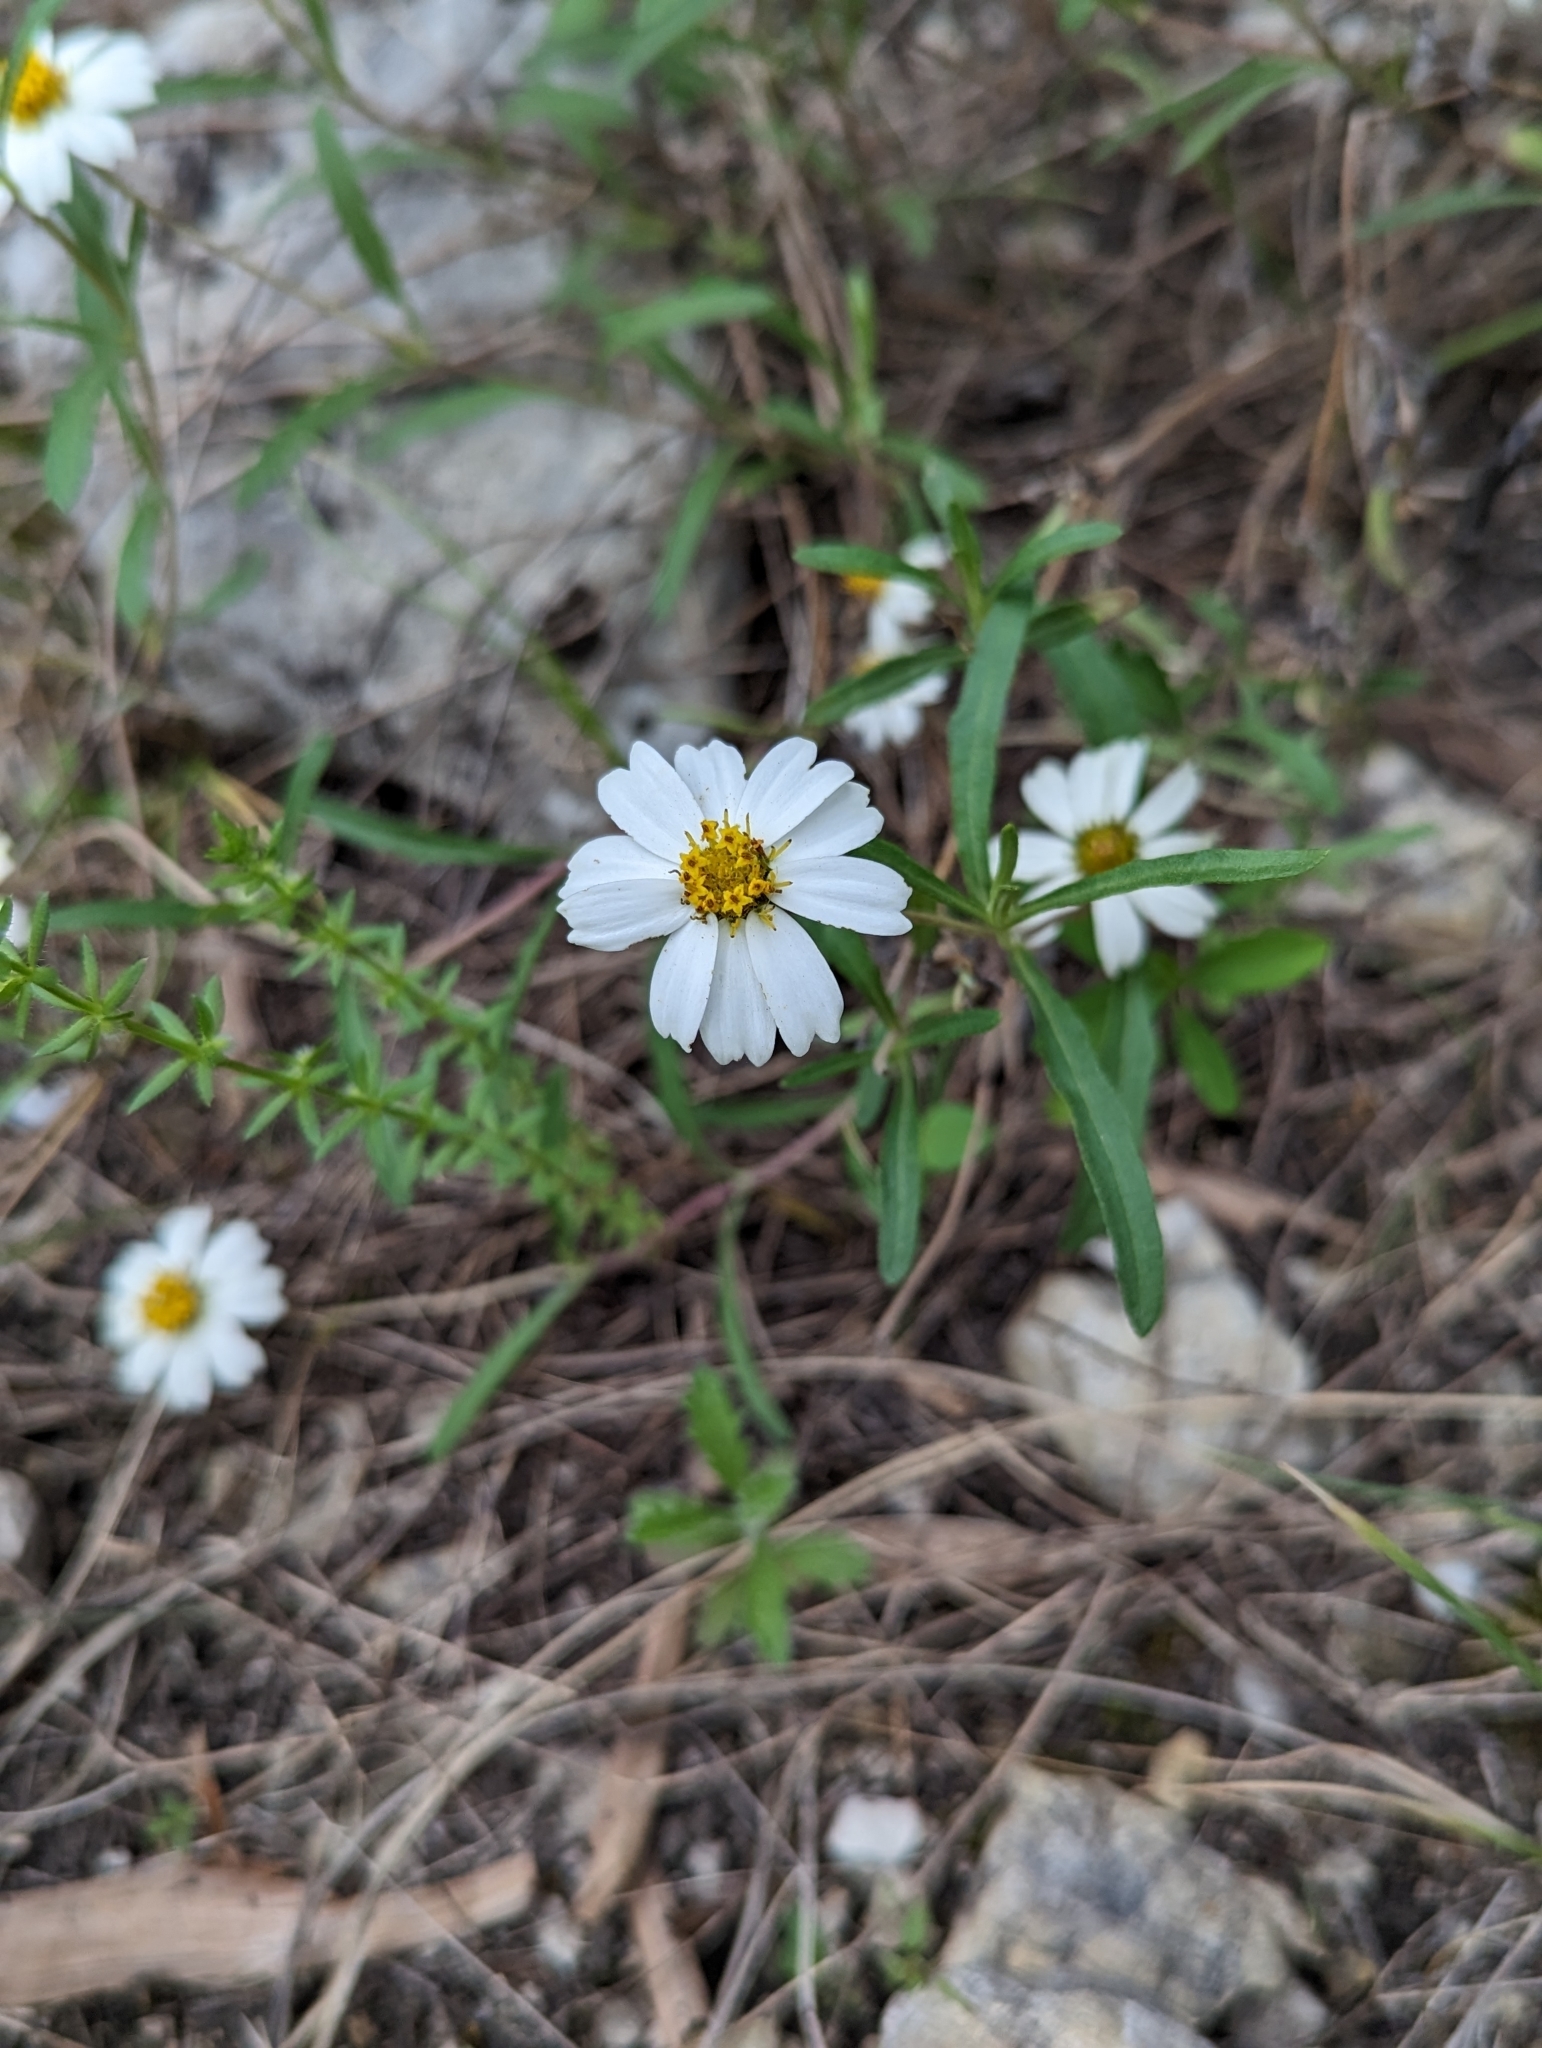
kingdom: Plantae
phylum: Tracheophyta
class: Magnoliopsida
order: Asterales
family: Asteraceae
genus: Melampodium
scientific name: Melampodium leucanthum
